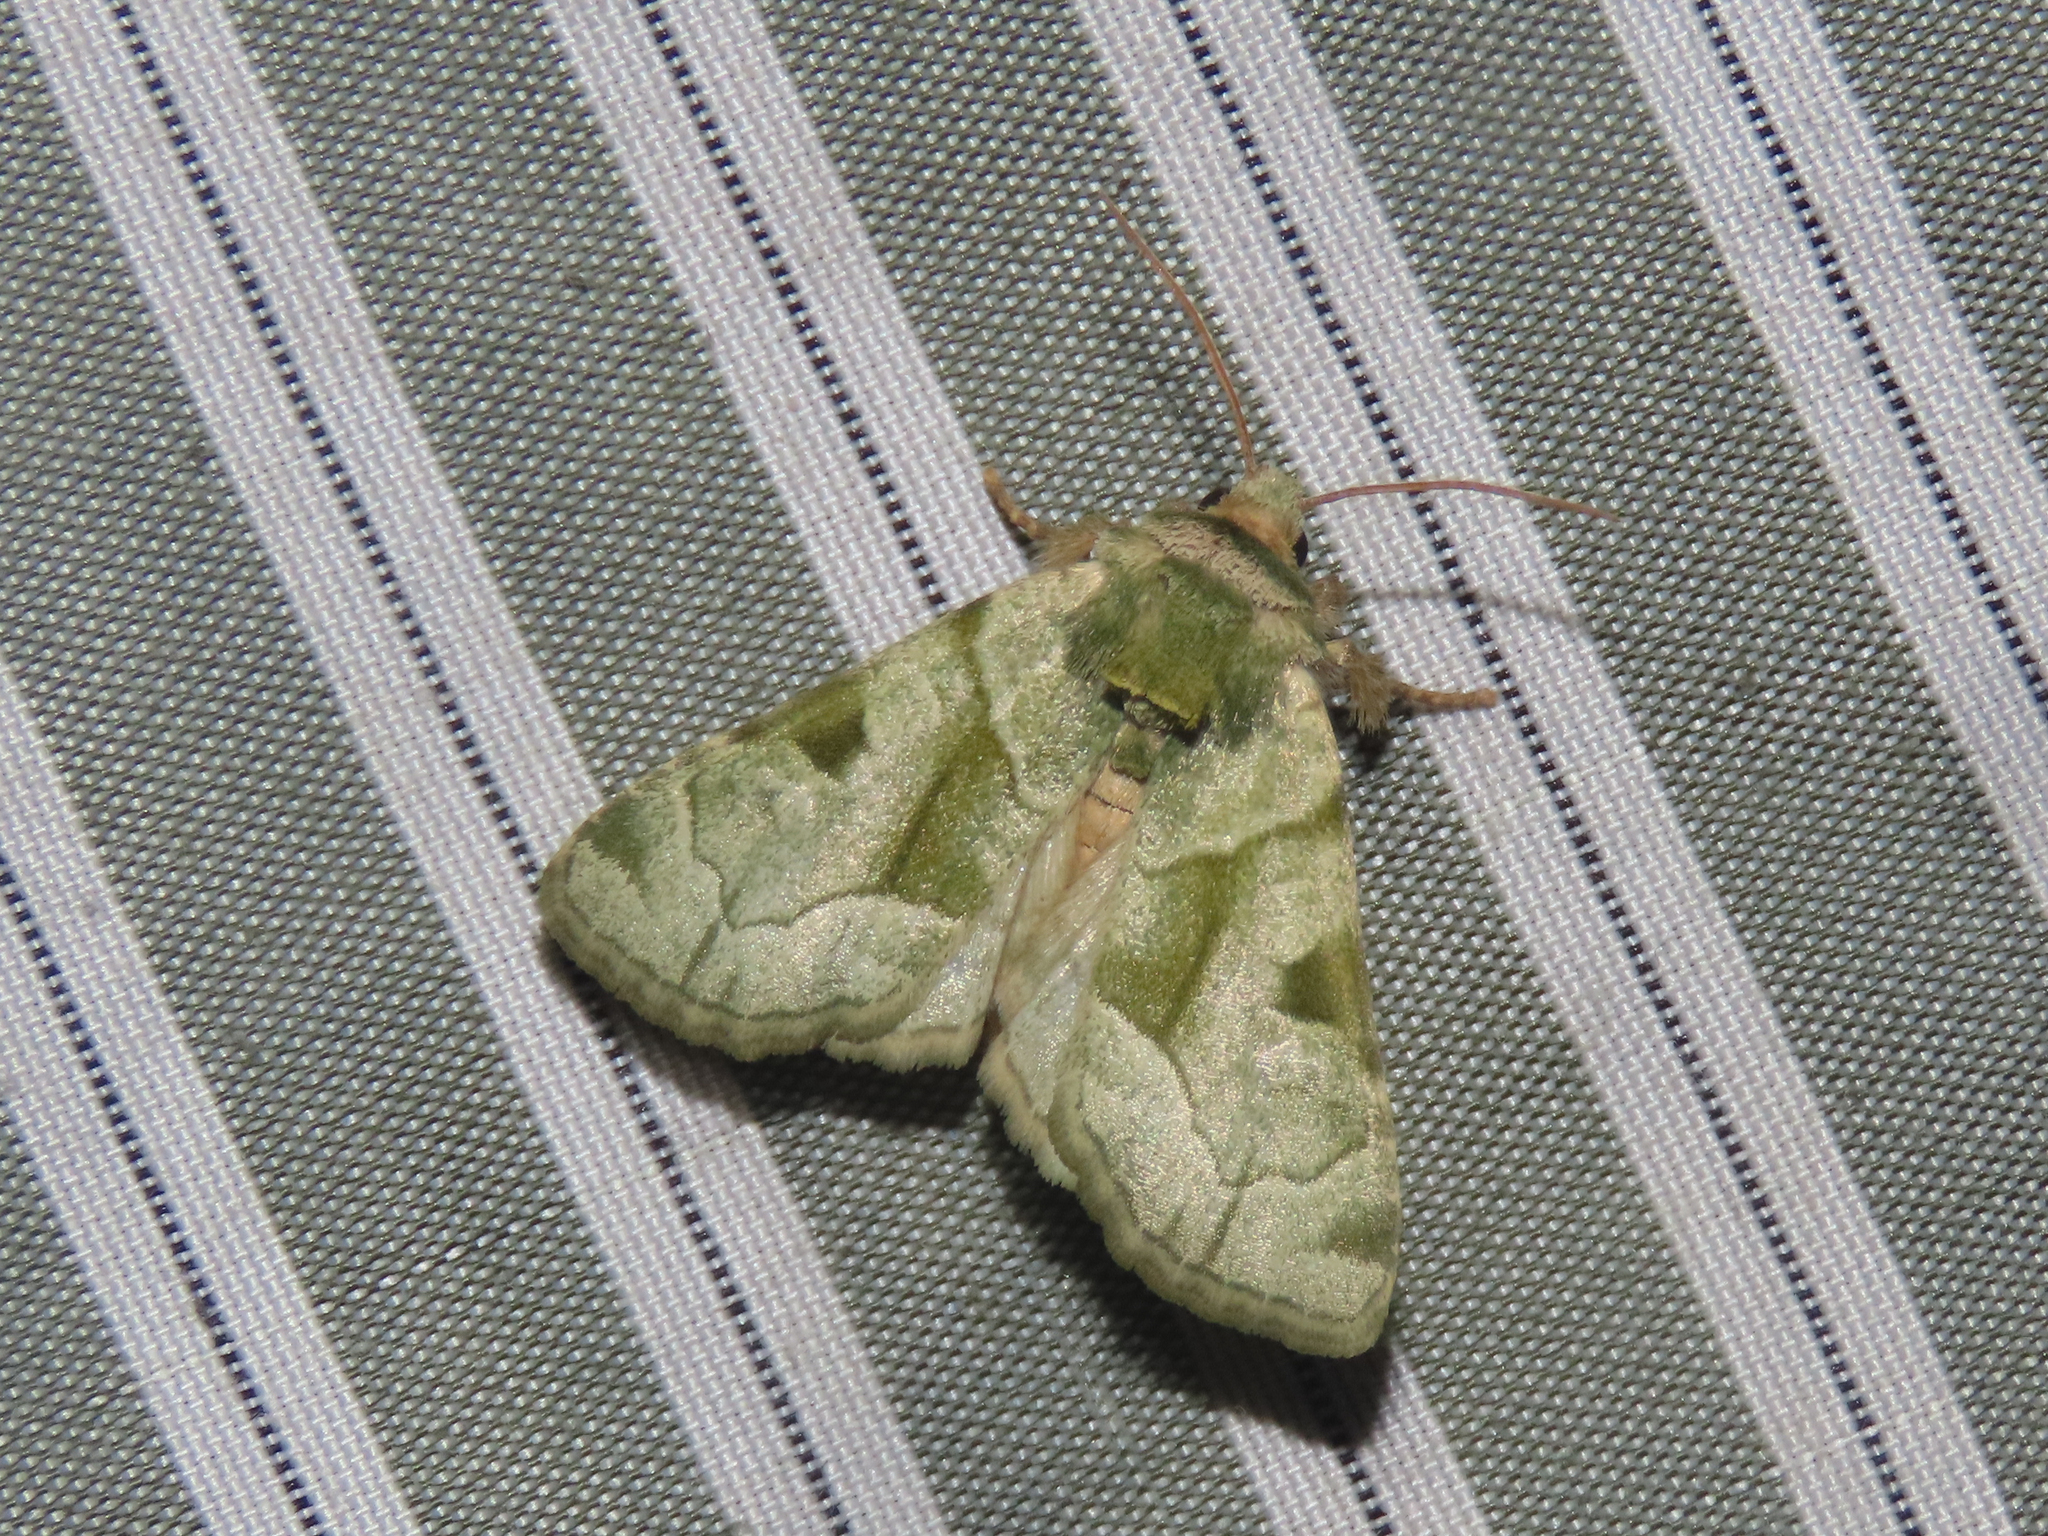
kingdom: Animalia
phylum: Arthropoda
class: Insecta
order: Lepidoptera
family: Noctuidae
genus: Oslaria
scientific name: Oslaria viridifera
